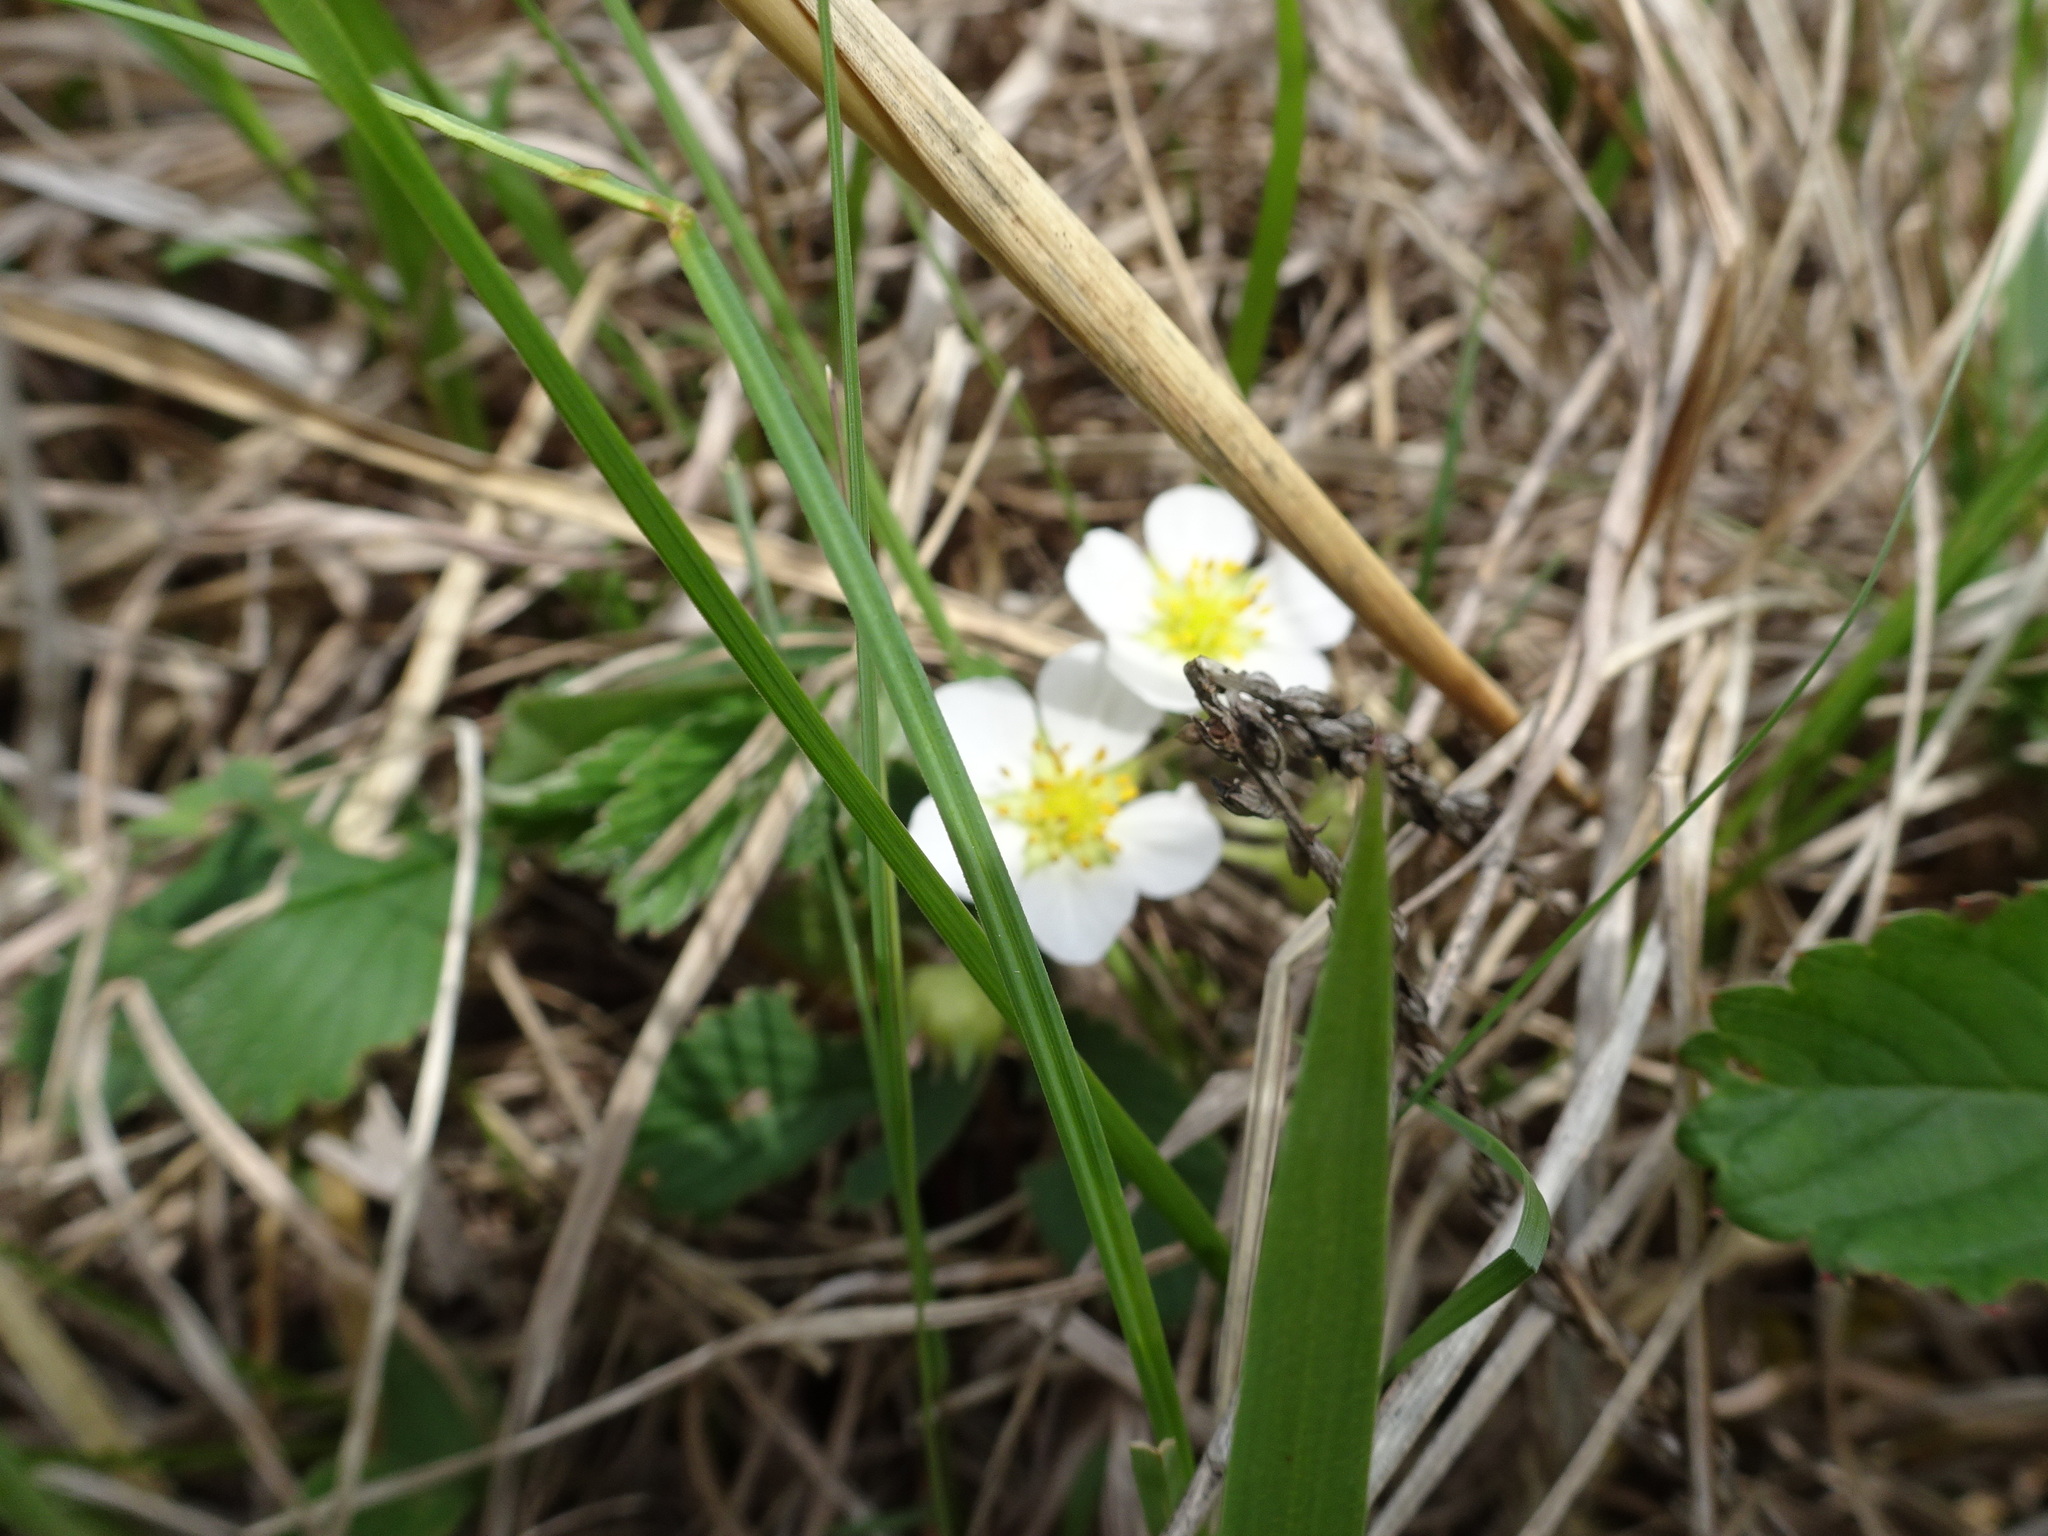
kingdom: Plantae
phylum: Tracheophyta
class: Magnoliopsida
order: Rosales
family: Rosaceae
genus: Fragaria
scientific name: Fragaria virginiana
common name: Thickleaved wild strawberry
